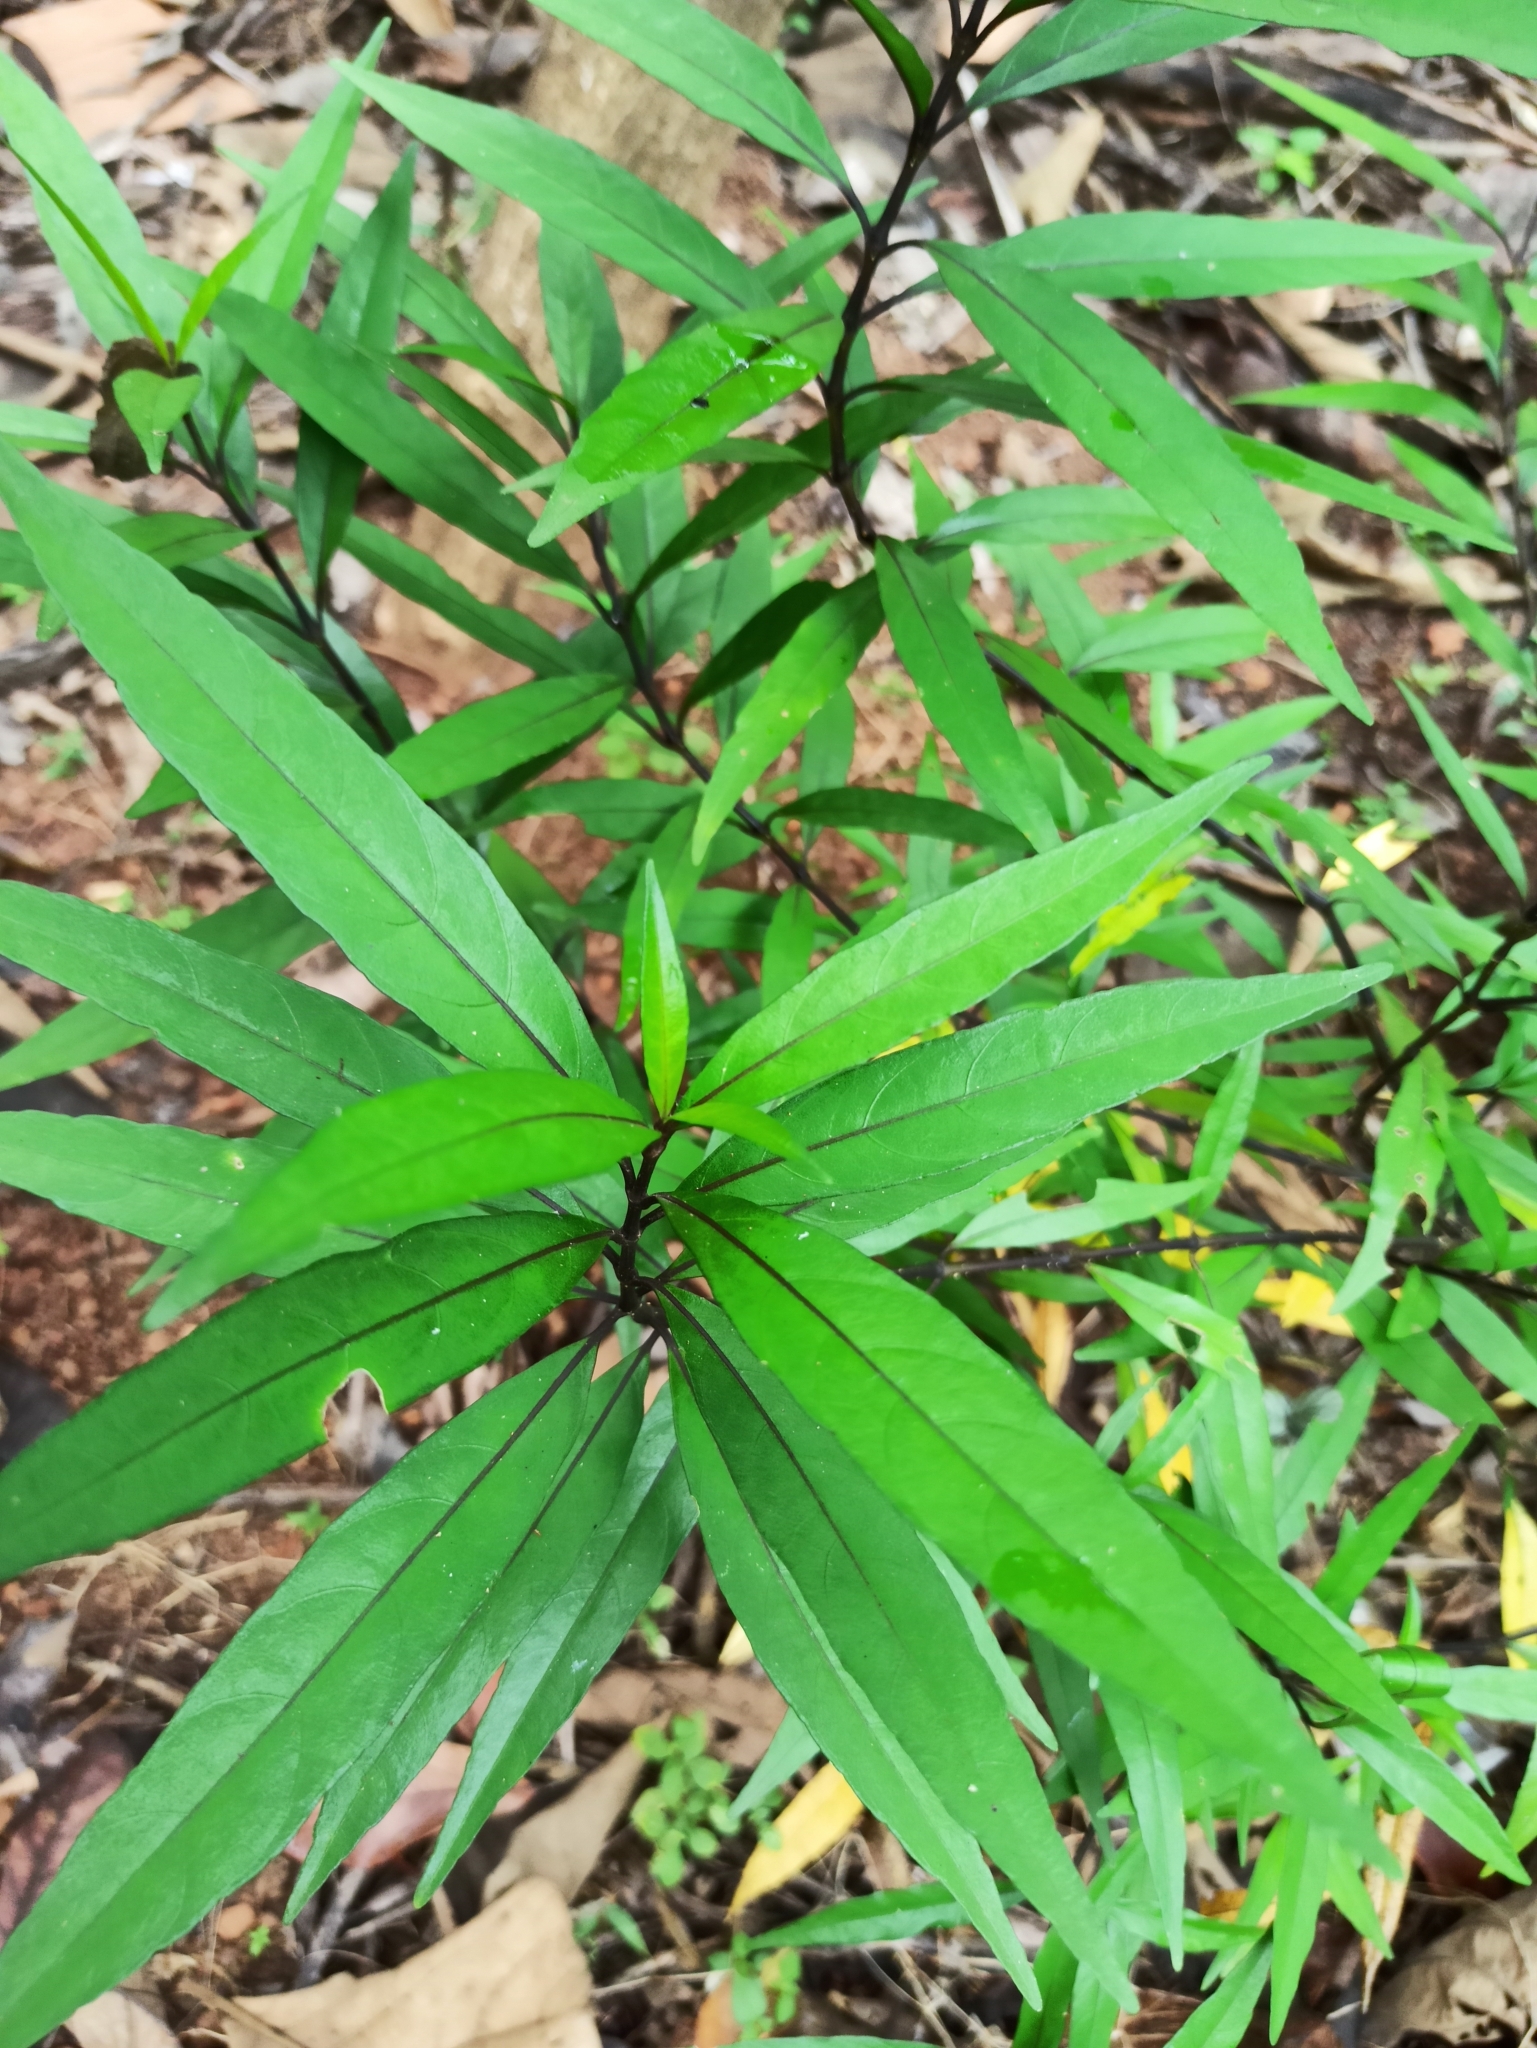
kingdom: Plantae
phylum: Tracheophyta
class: Magnoliopsida
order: Lamiales
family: Acanthaceae
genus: Justicia
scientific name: Justicia gendarussa
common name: Warer willow
